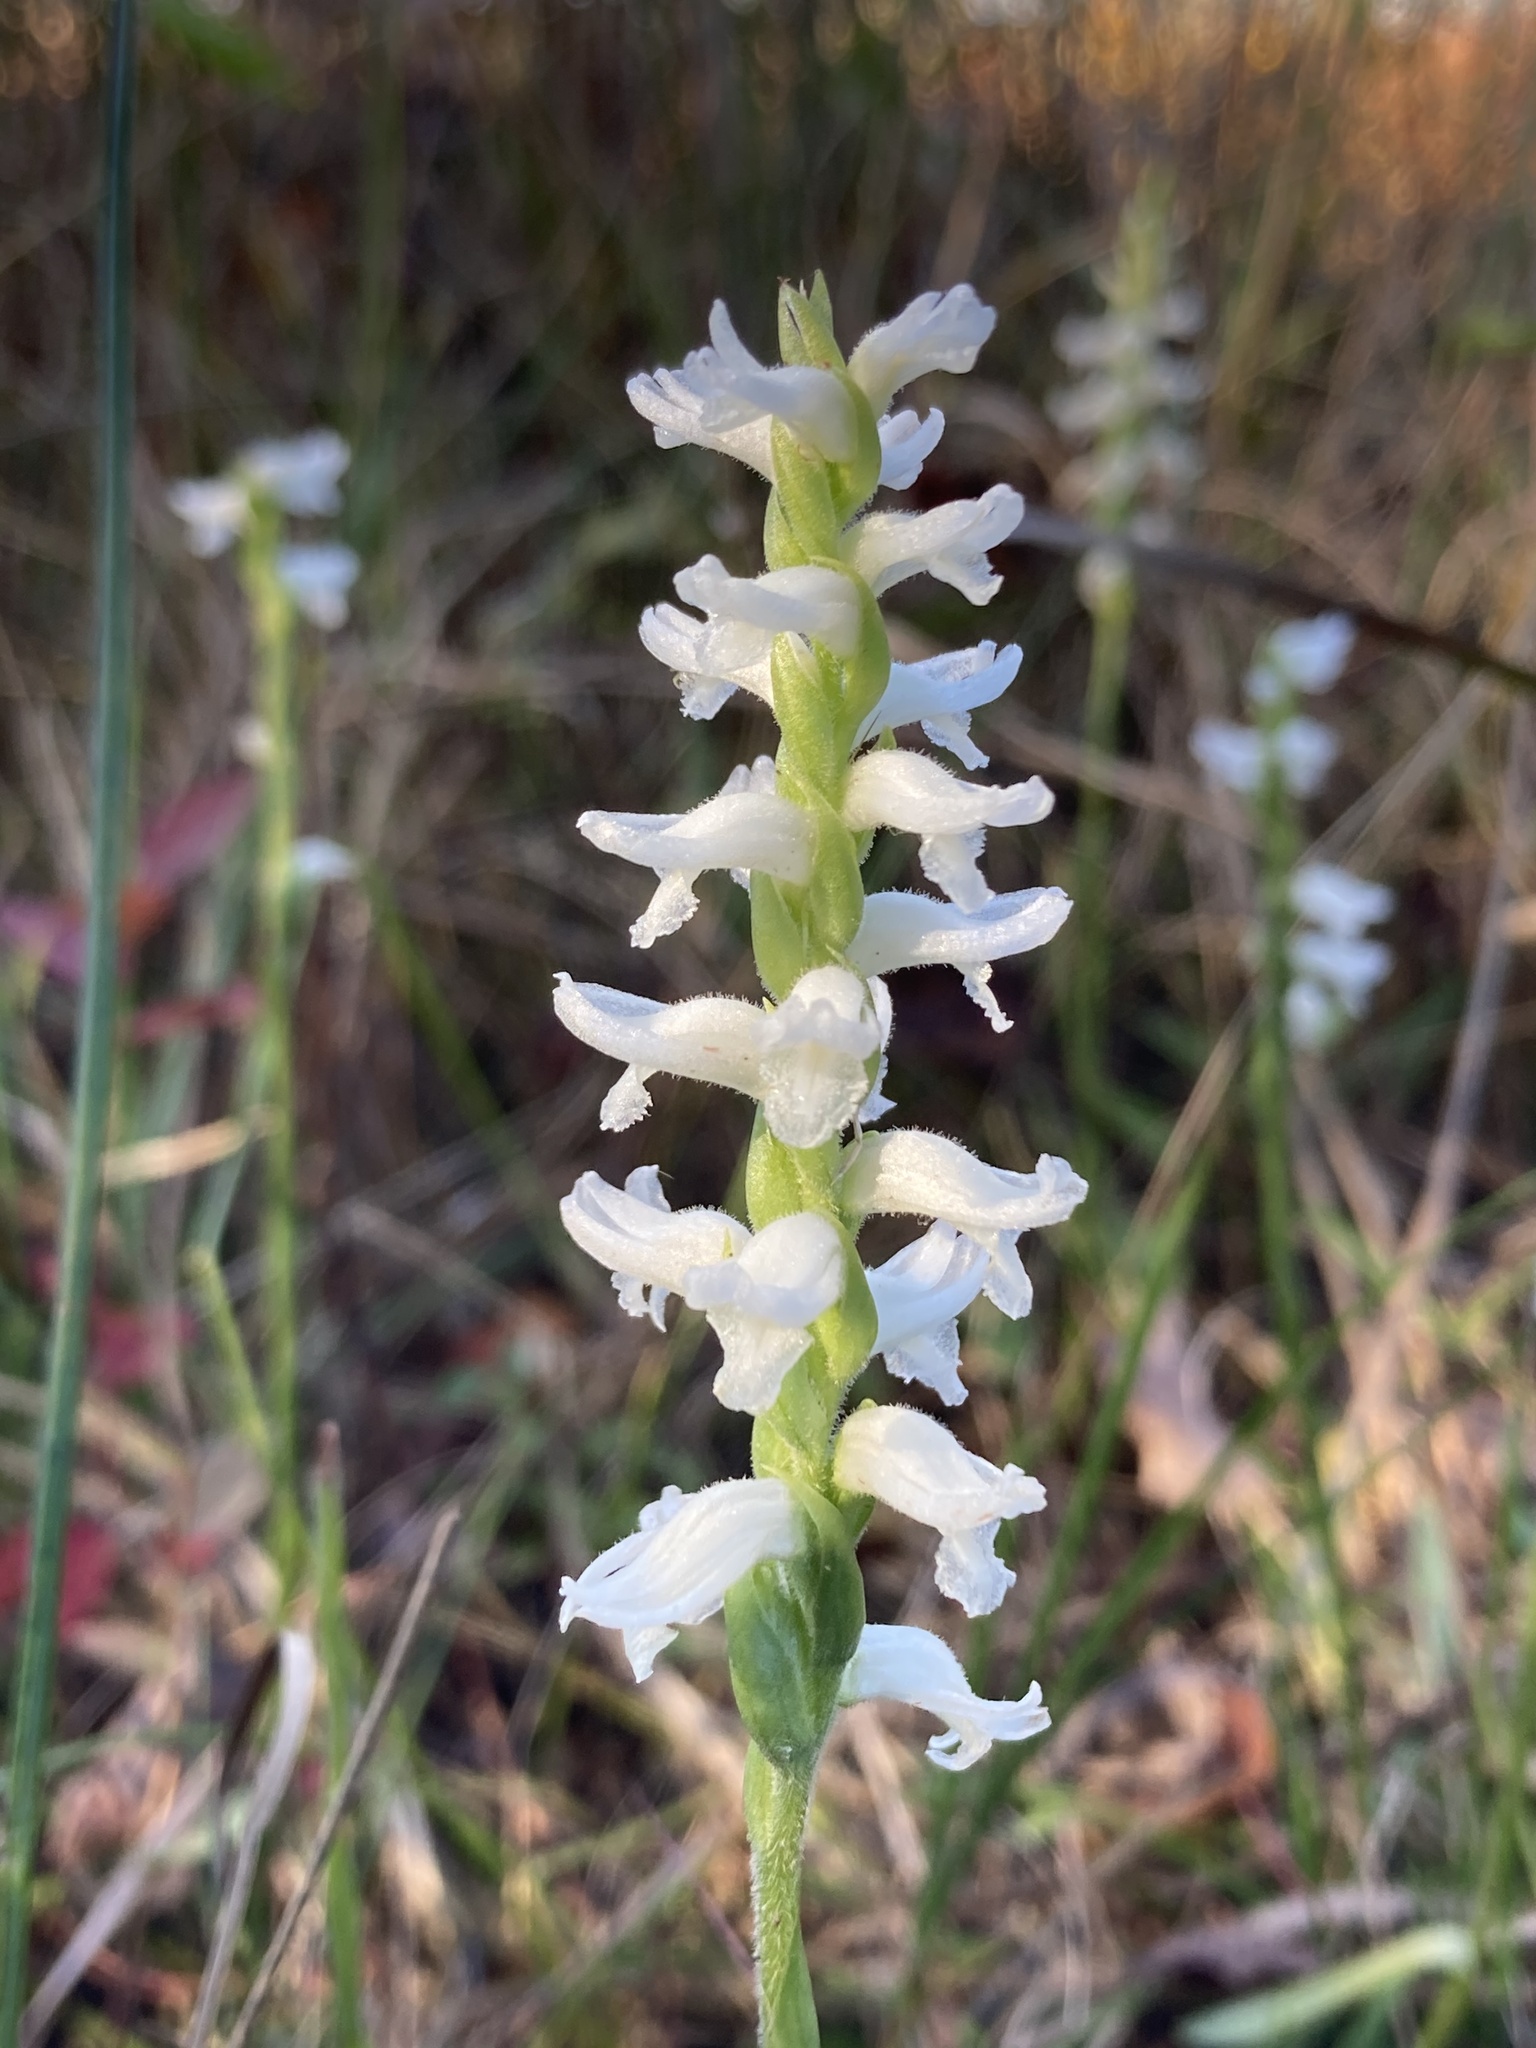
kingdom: Plantae
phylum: Tracheophyta
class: Liliopsida
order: Asparagales
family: Orchidaceae
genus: Spiranthes
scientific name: Spiranthes bightensis
